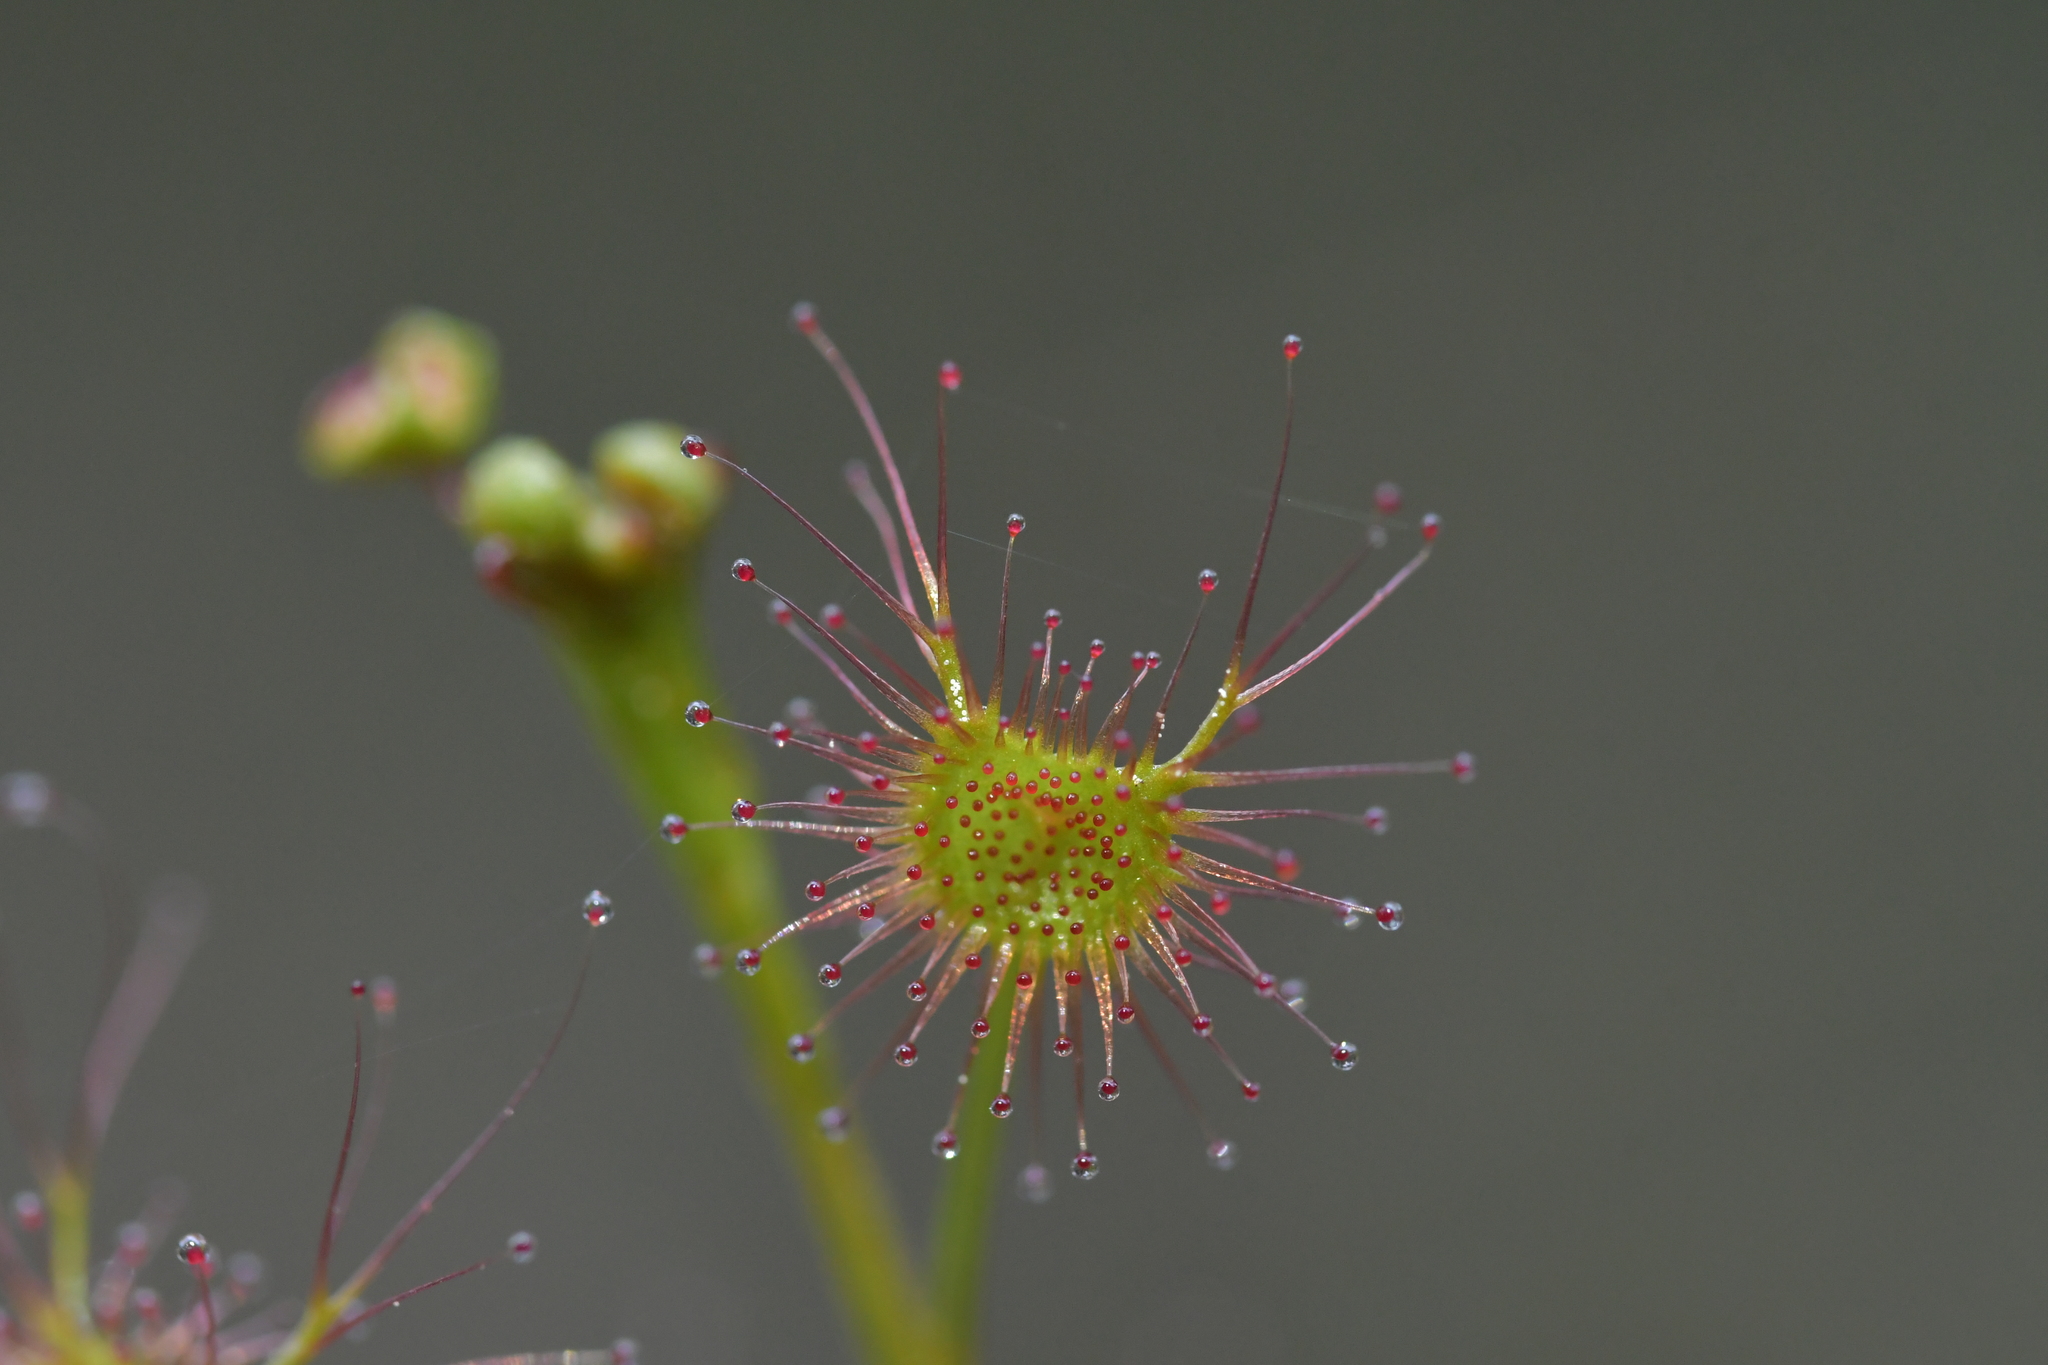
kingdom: Plantae
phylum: Tracheophyta
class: Magnoliopsida
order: Caryophyllales
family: Droseraceae
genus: Drosera
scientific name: Drosera peltata
